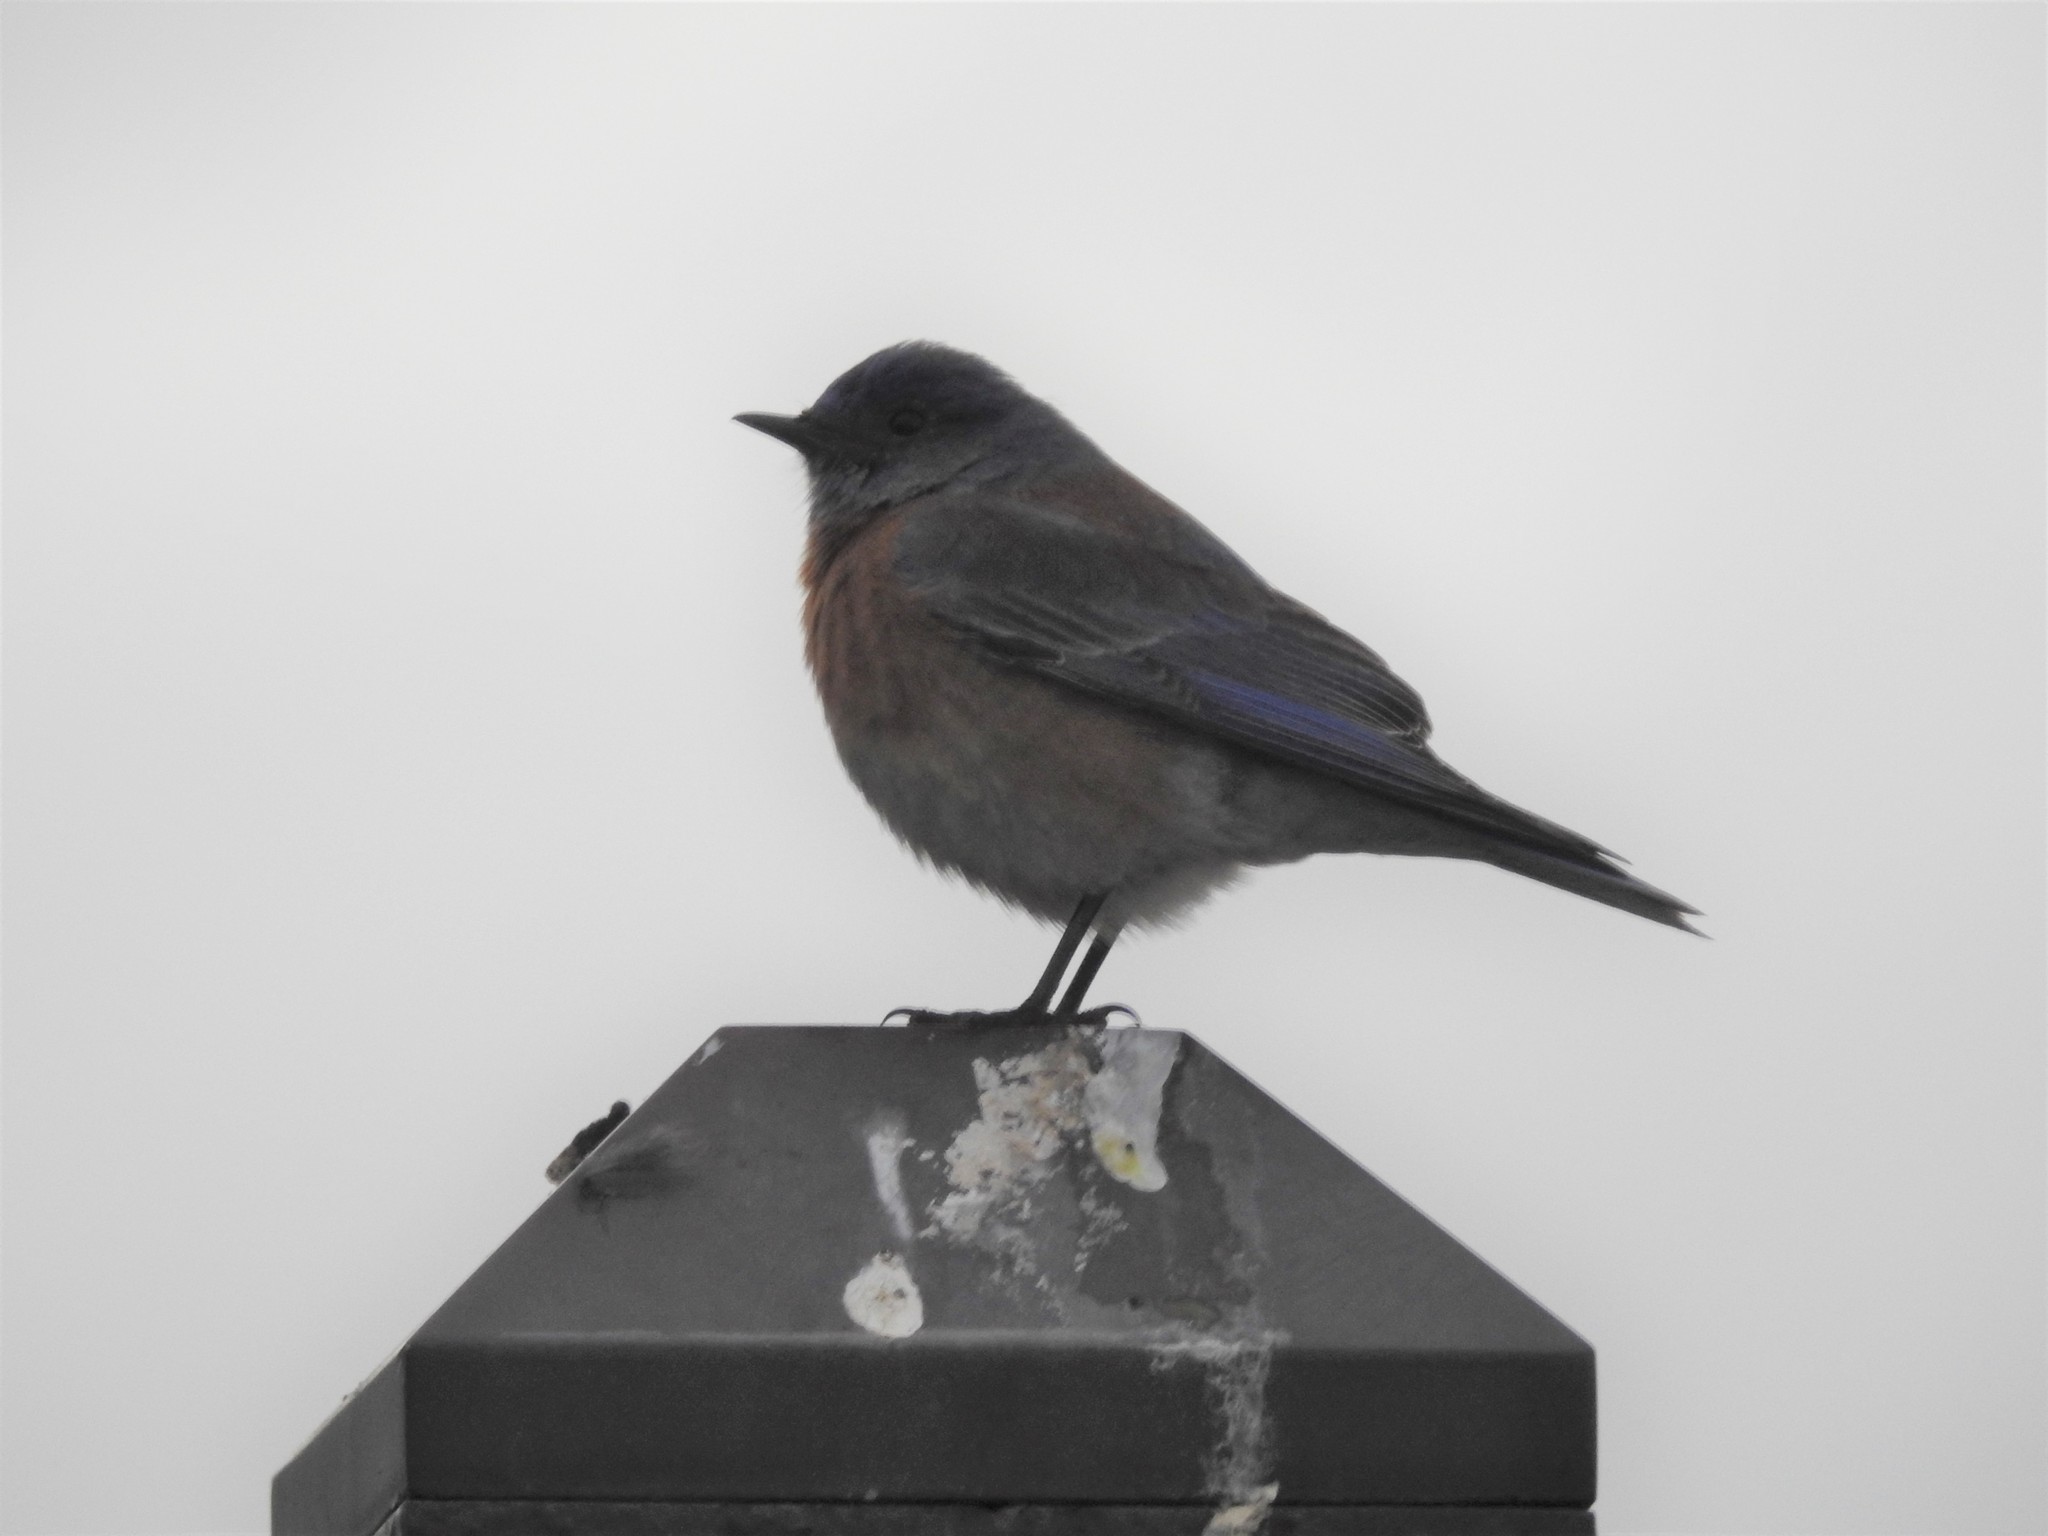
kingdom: Animalia
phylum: Chordata
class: Aves
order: Passeriformes
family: Turdidae
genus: Sialia
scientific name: Sialia mexicana
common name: Western bluebird
